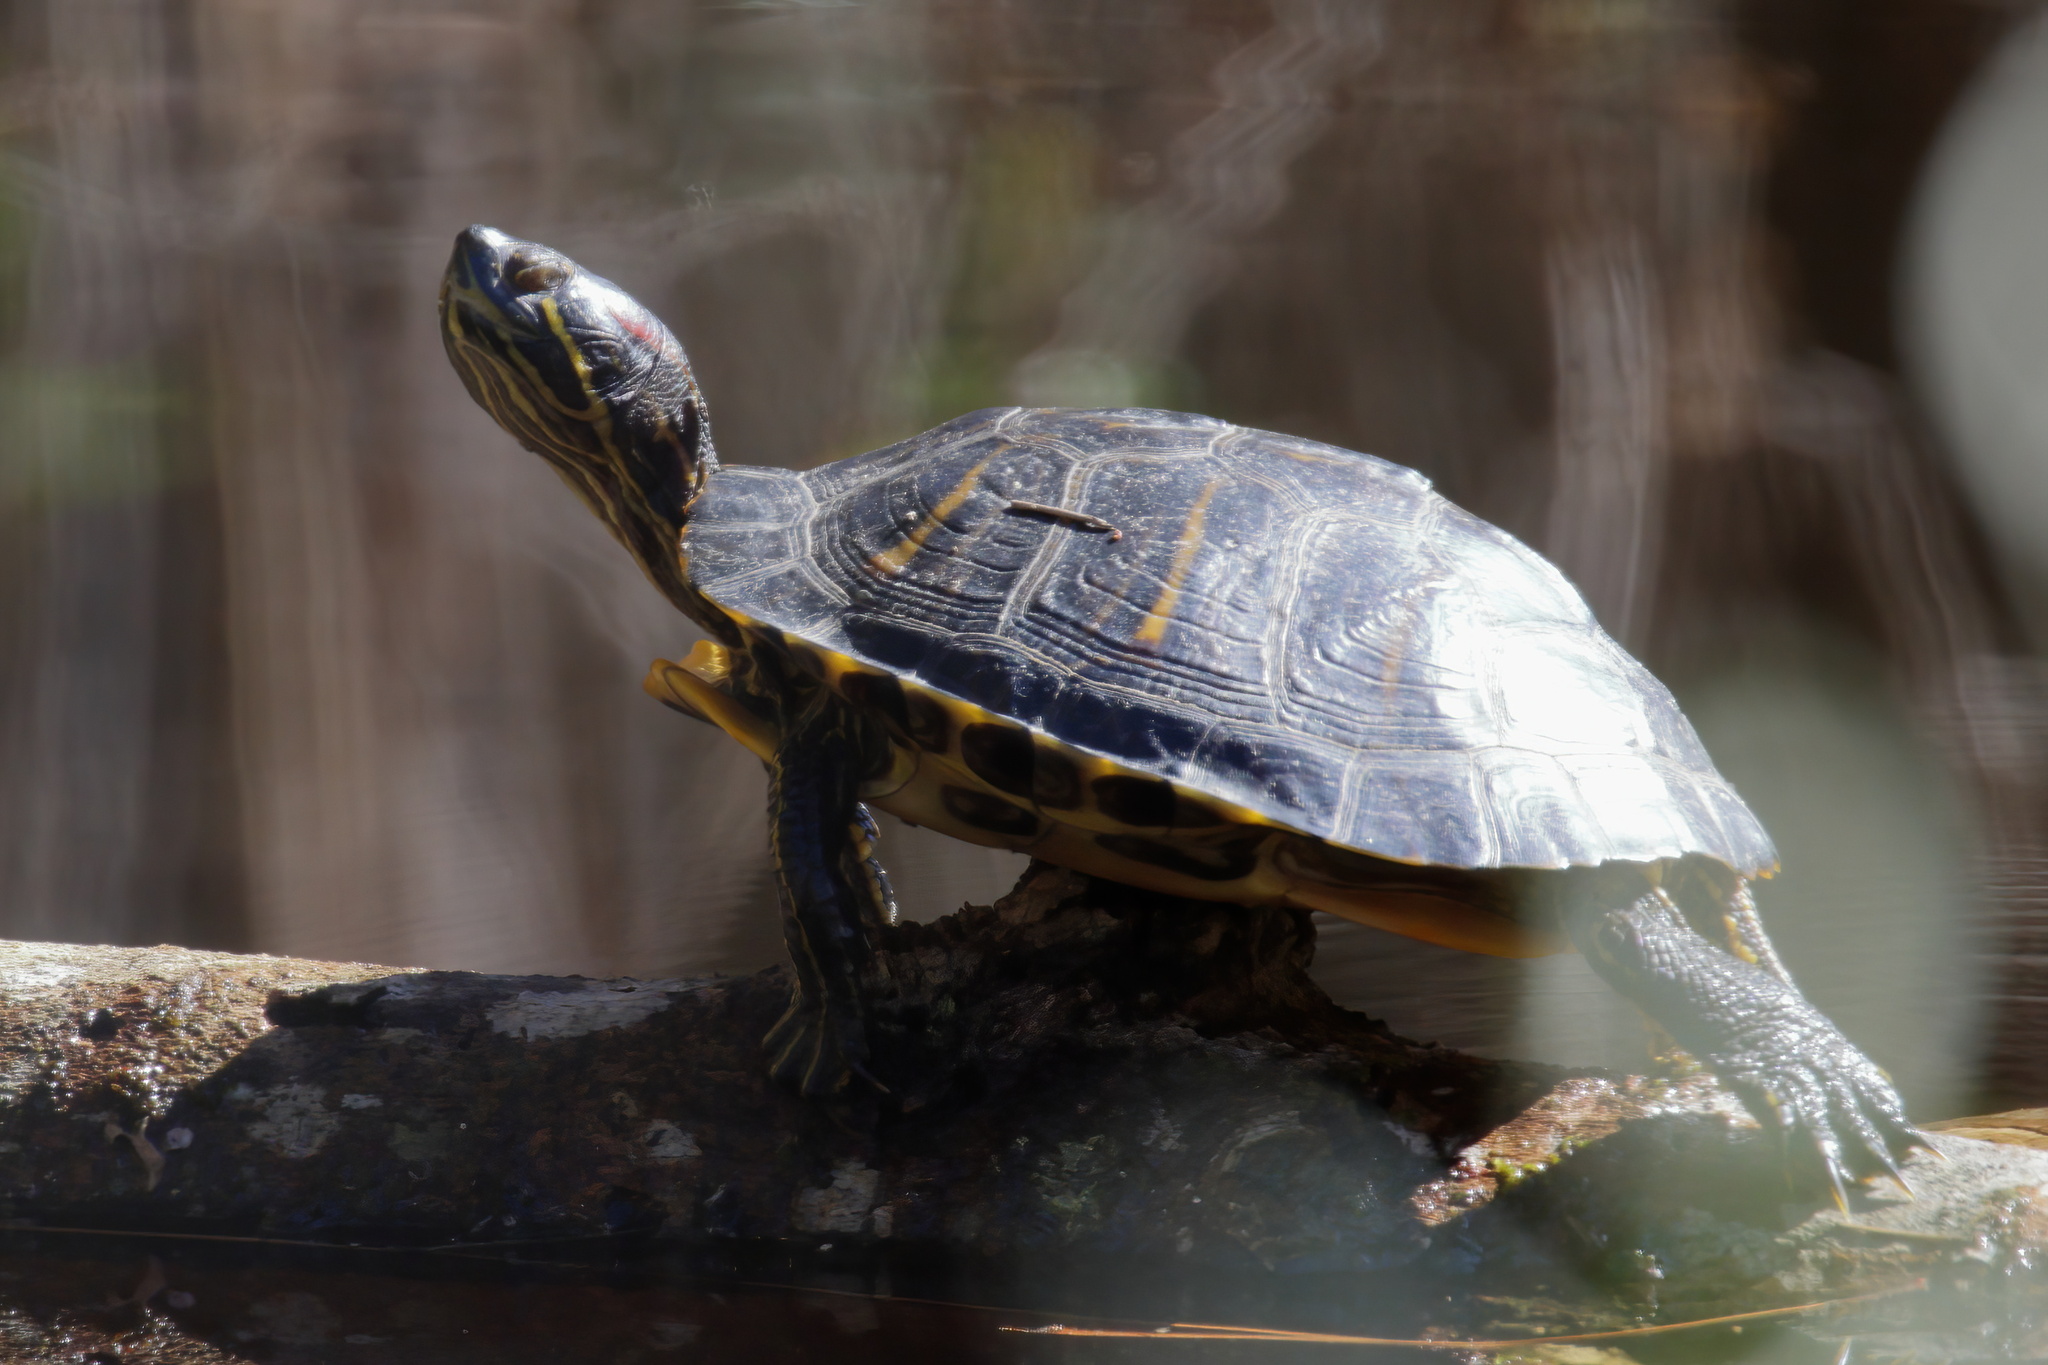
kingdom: Animalia
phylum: Chordata
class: Testudines
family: Emydidae
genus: Trachemys
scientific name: Trachemys scripta
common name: Slider
